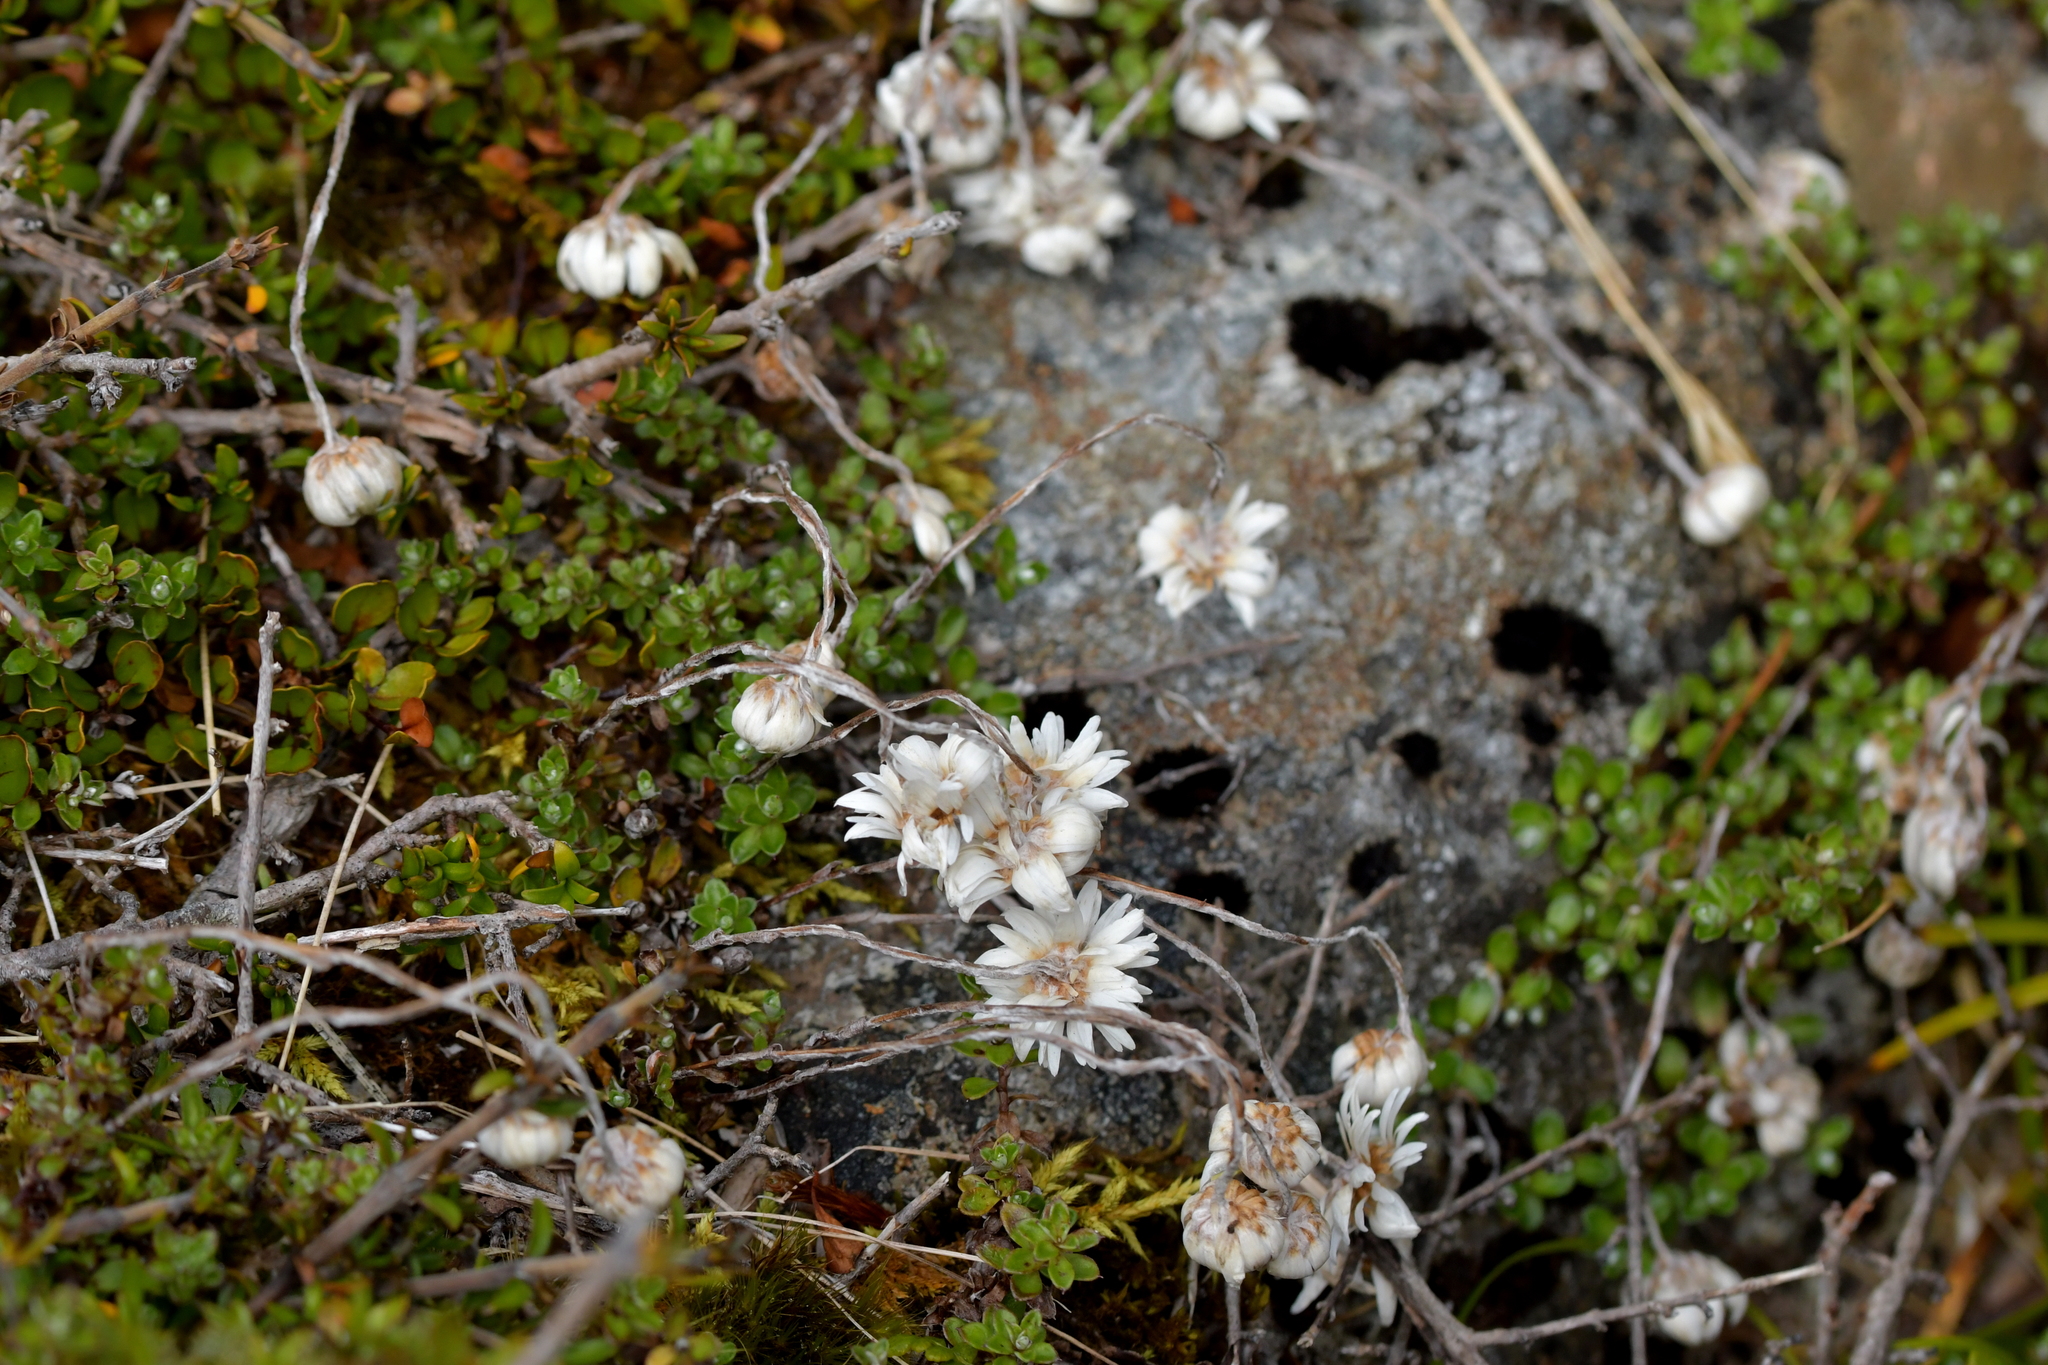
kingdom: Plantae
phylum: Tracheophyta
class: Magnoliopsida
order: Asterales
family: Asteraceae
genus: Anaphalioides
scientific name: Anaphalioides bellidioides
